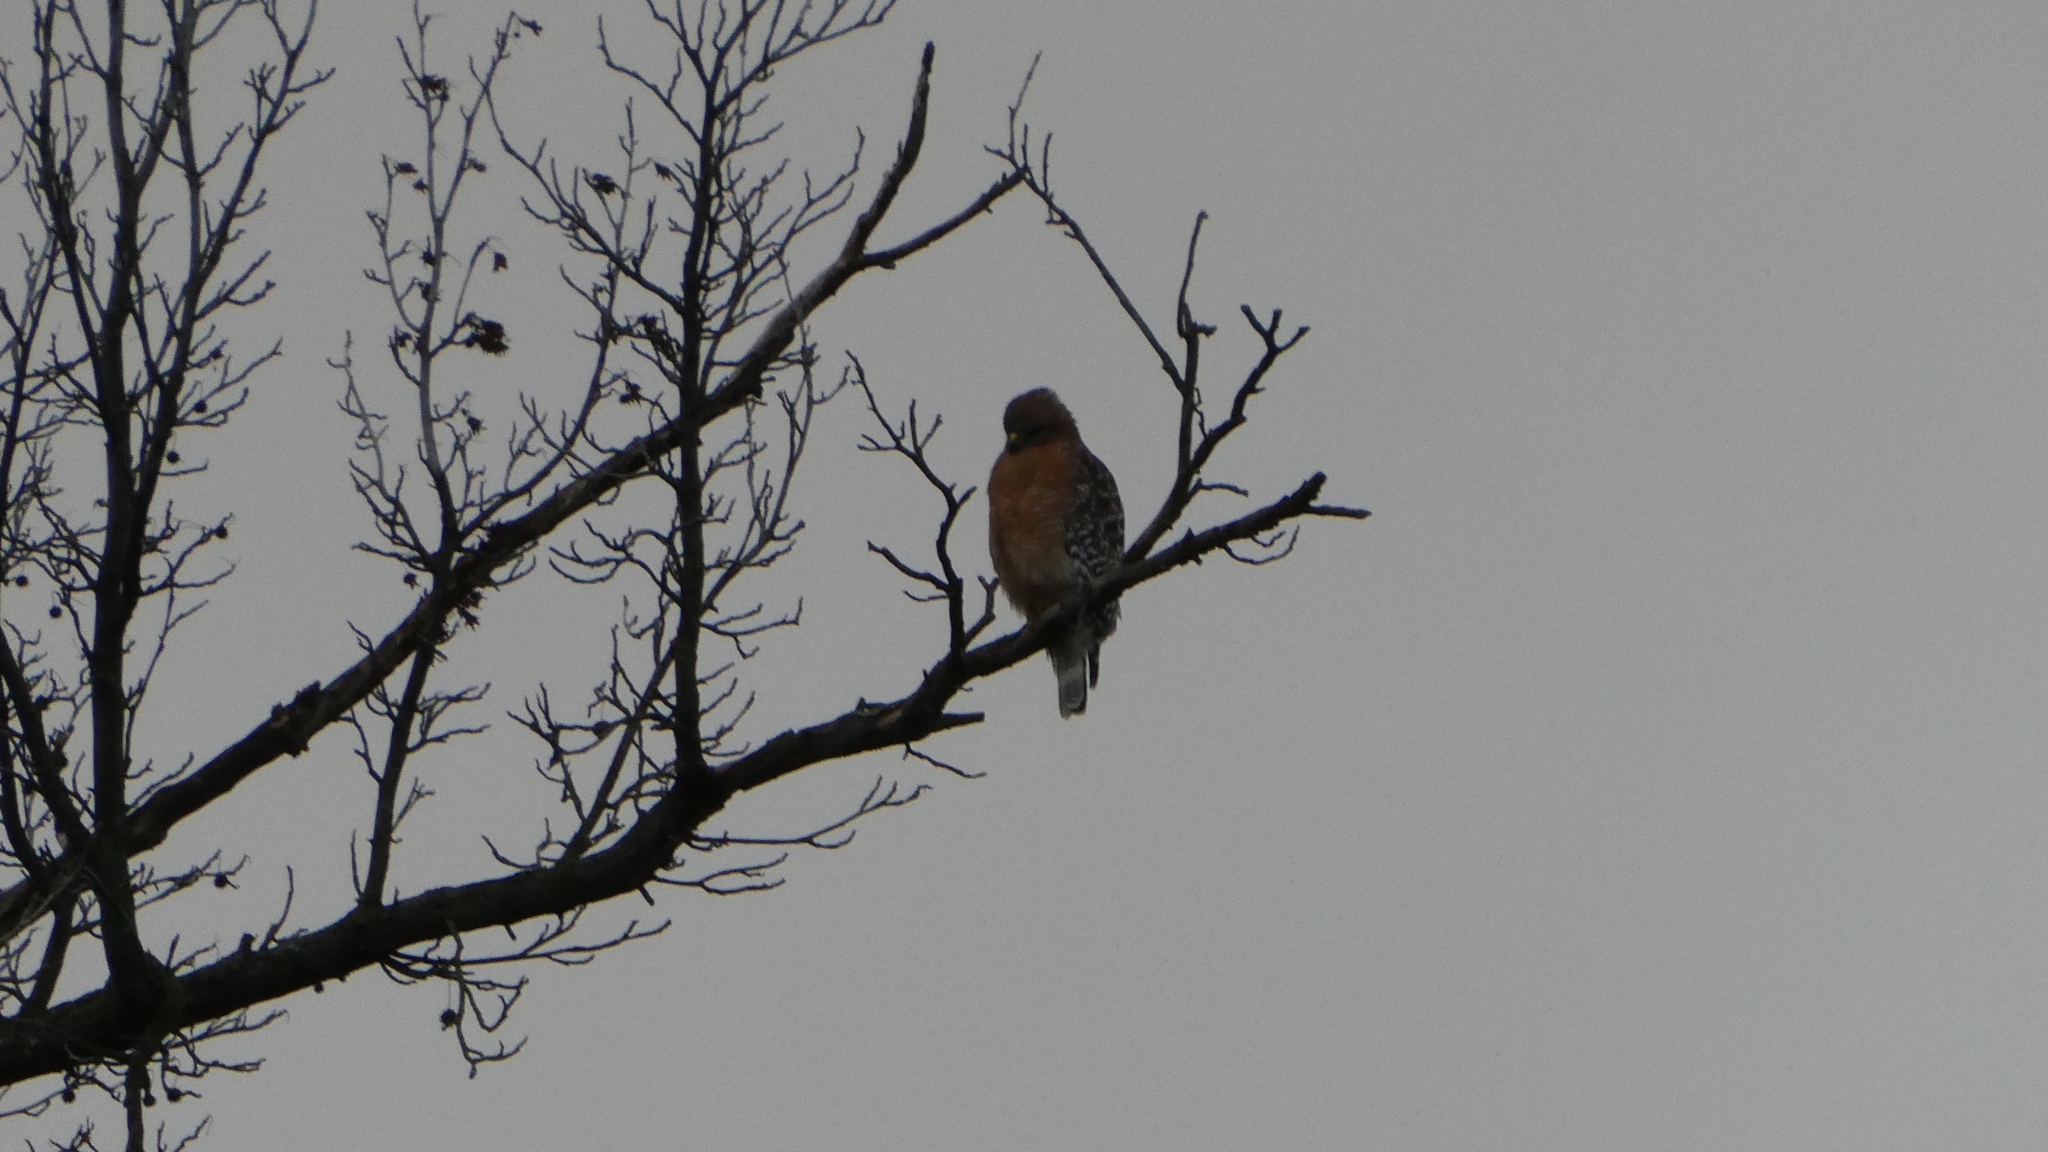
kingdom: Animalia
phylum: Chordata
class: Aves
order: Accipitriformes
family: Accipitridae
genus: Buteo
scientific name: Buteo lineatus
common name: Red-shouldered hawk
